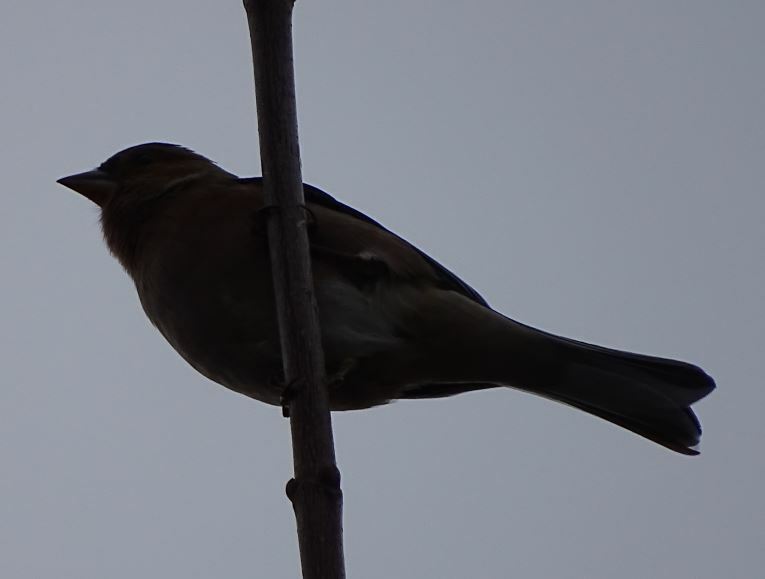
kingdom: Animalia
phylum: Chordata
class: Aves
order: Passeriformes
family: Fringillidae
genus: Fringilla
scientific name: Fringilla coelebs
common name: Common chaffinch
